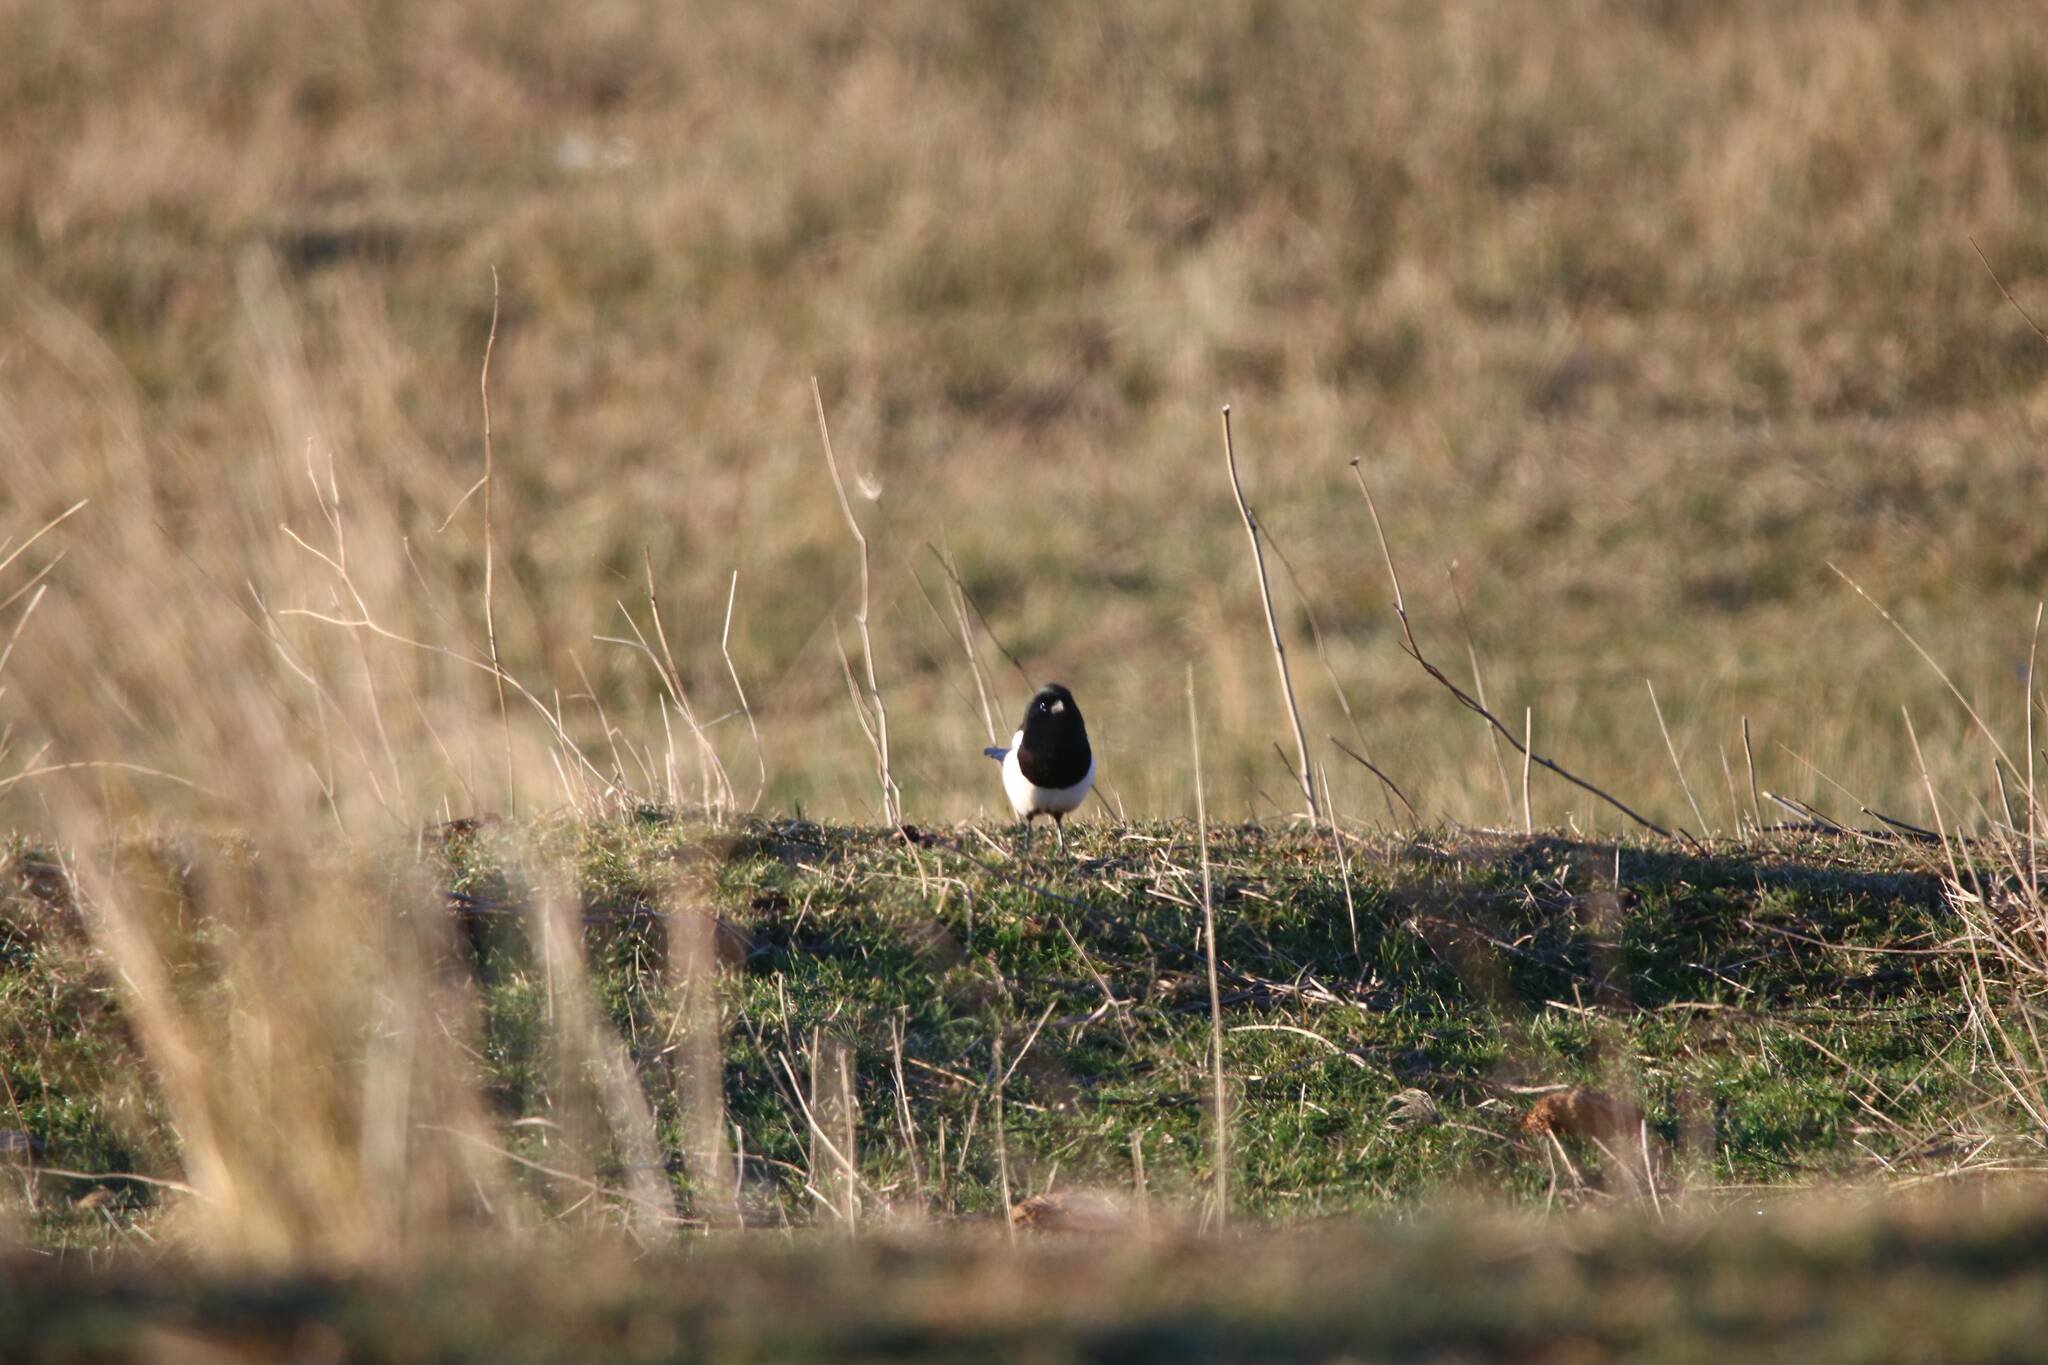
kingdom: Animalia
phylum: Chordata
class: Aves
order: Passeriformes
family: Corvidae
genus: Pica
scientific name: Pica mauritanica
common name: Maghreb magpie
